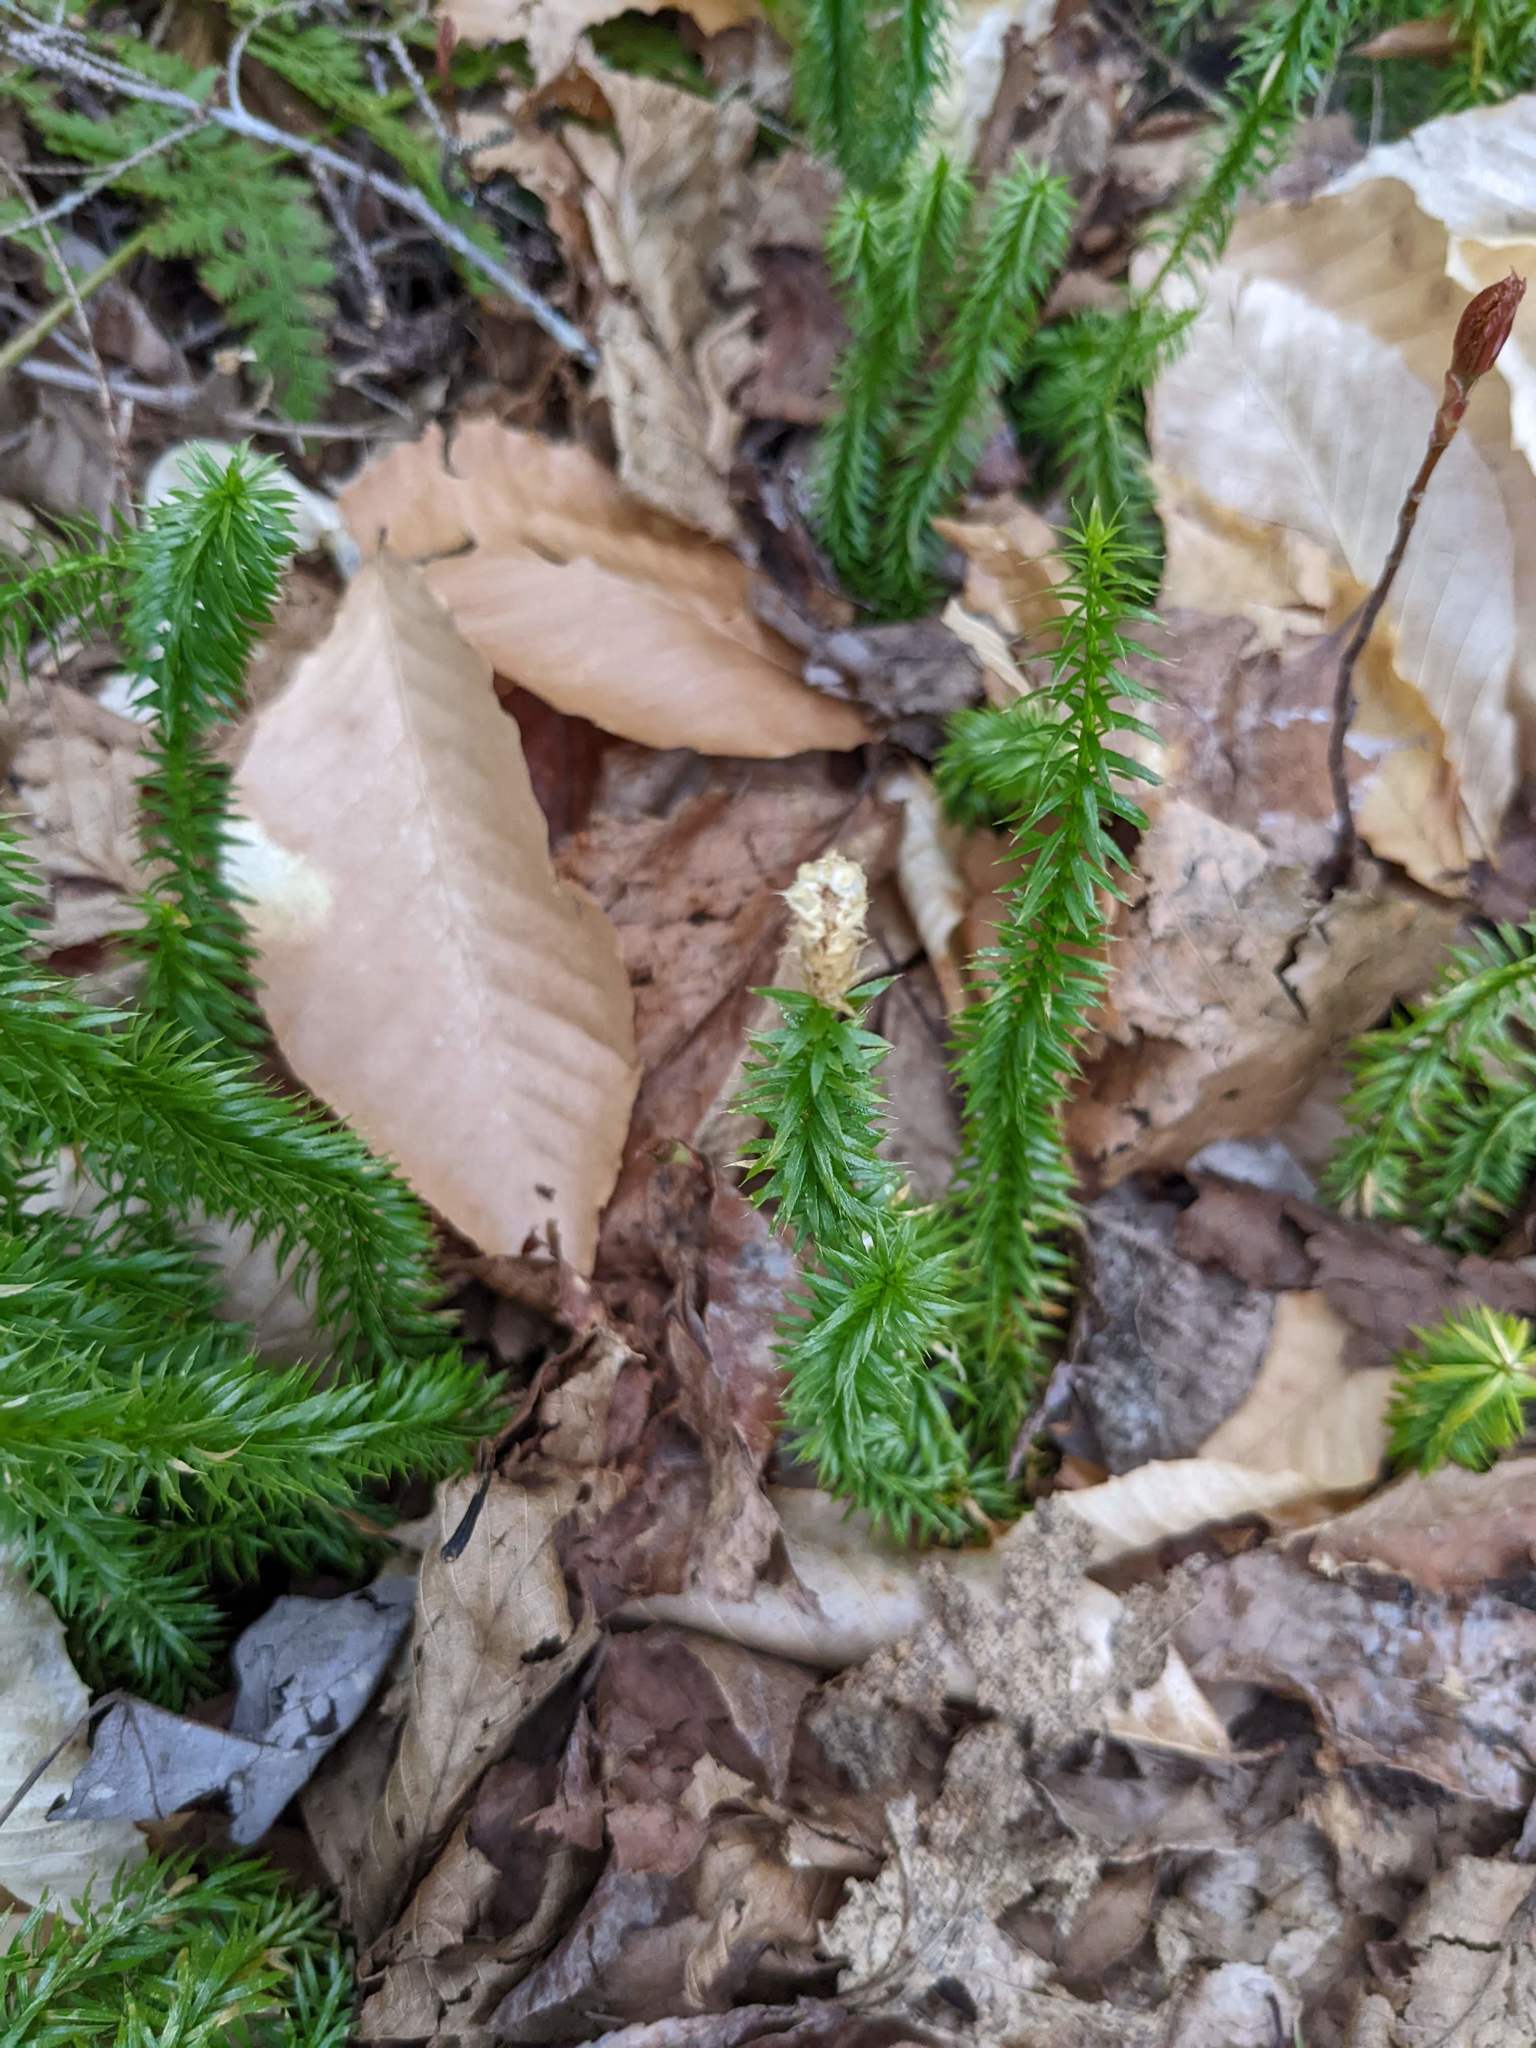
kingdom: Plantae
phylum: Tracheophyta
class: Lycopodiopsida
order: Lycopodiales
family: Lycopodiaceae
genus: Spinulum
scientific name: Spinulum annotinum
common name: Interrupted club-moss
